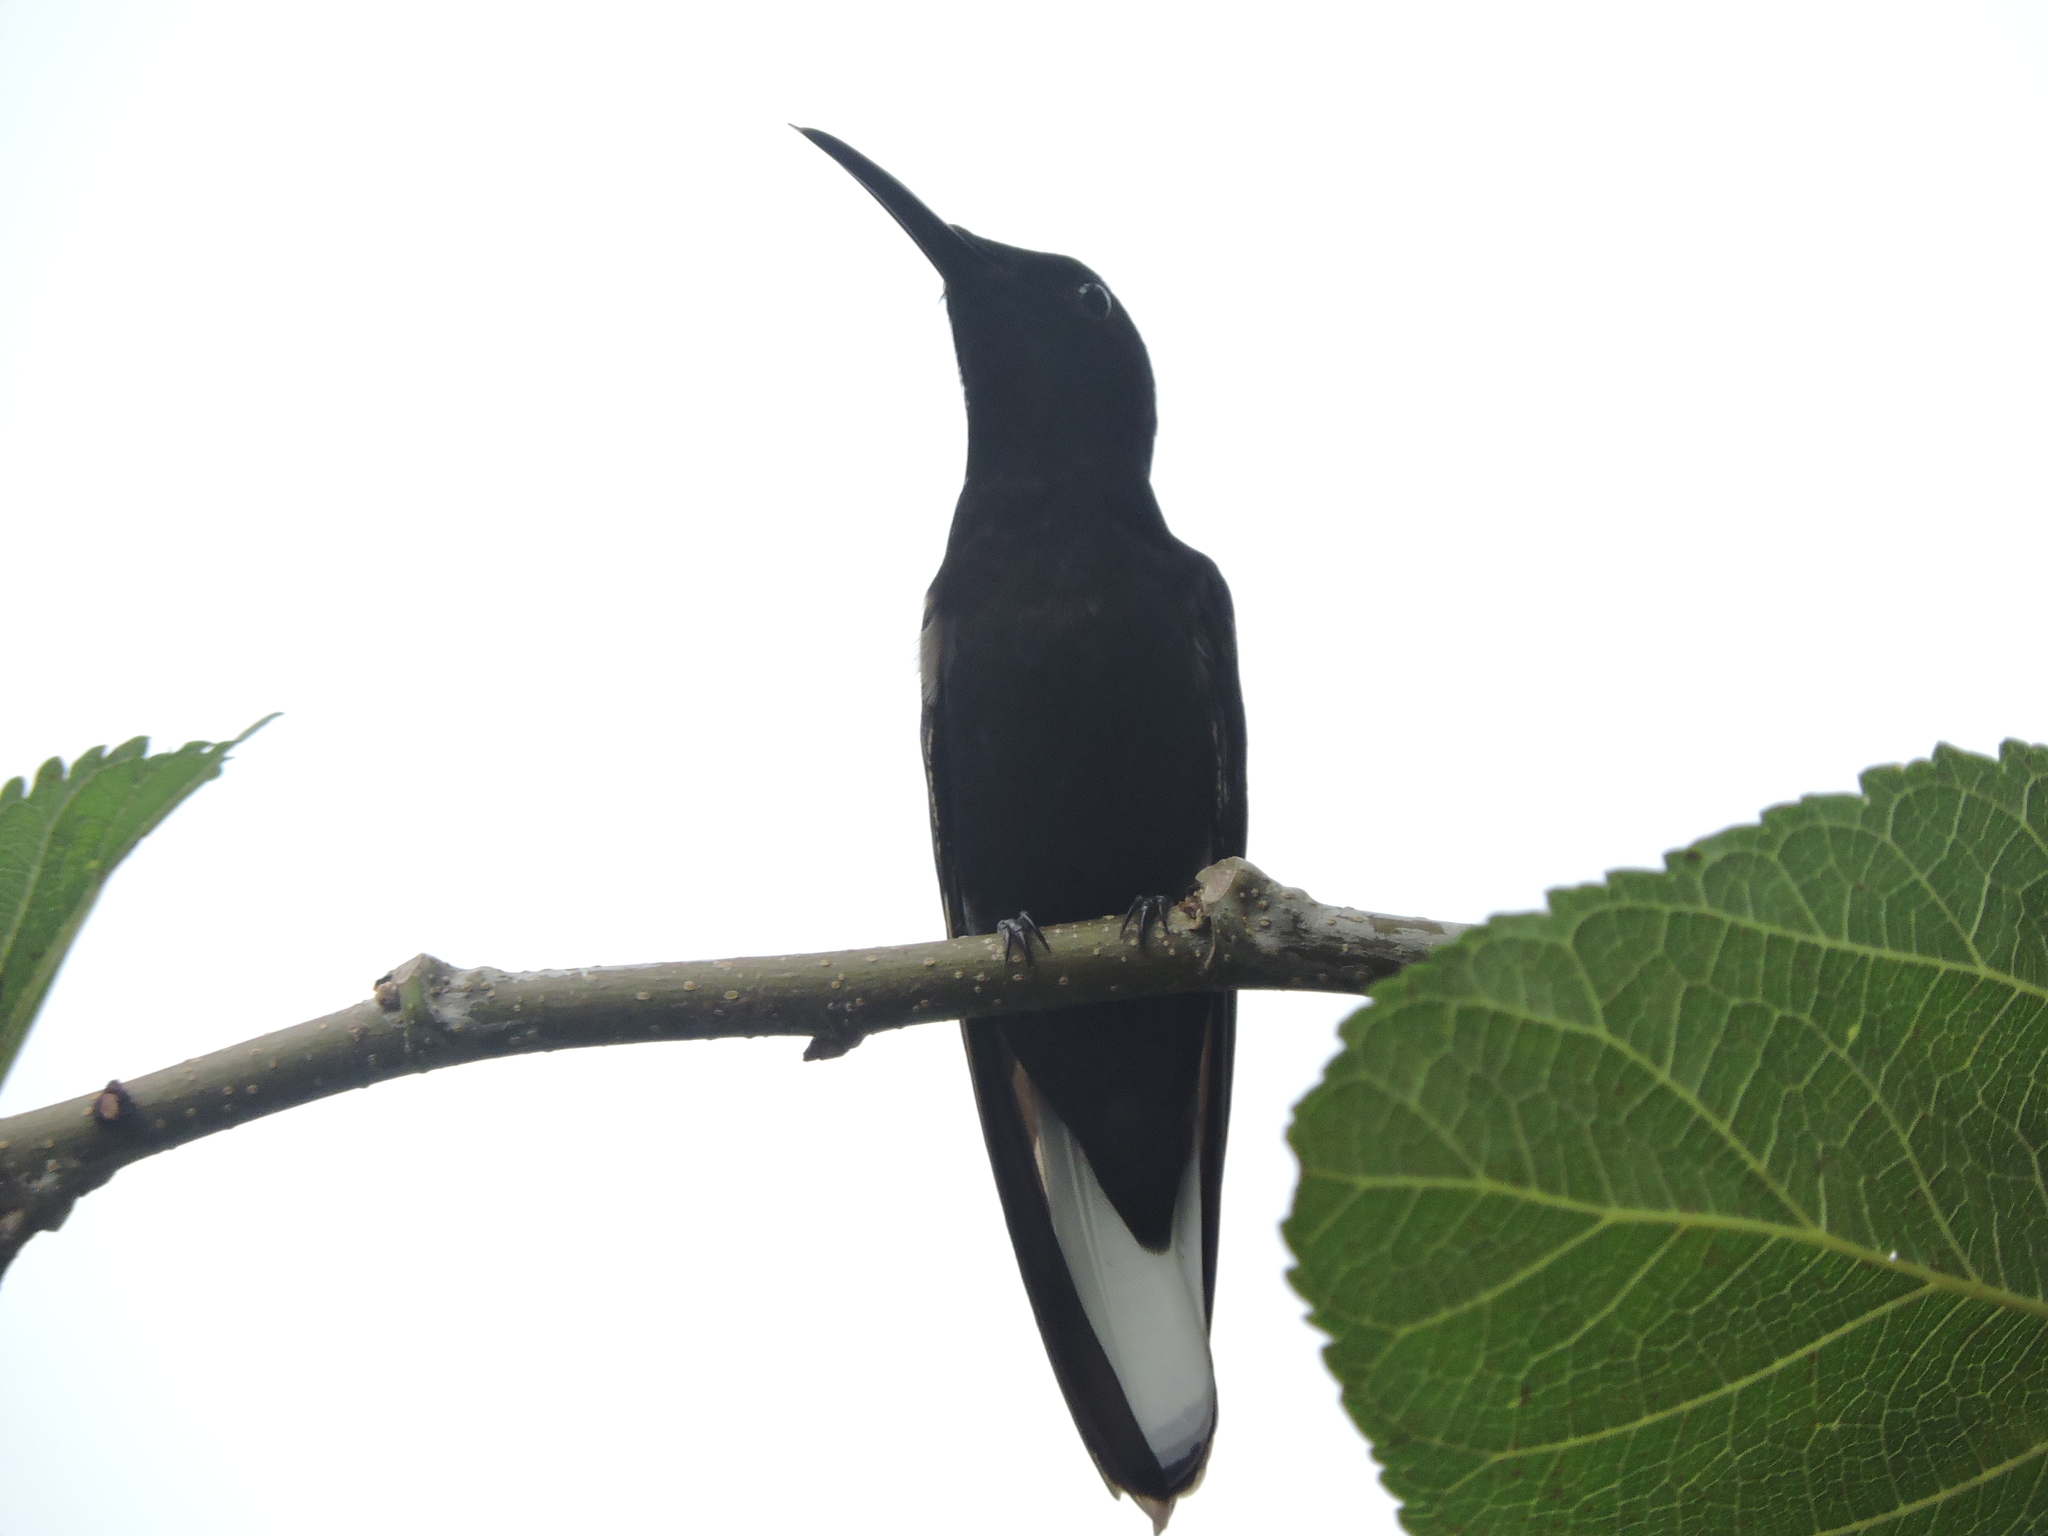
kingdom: Animalia
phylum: Chordata
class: Aves
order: Apodiformes
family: Trochilidae
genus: Florisuga
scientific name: Florisuga fusca
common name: Black jacobin
